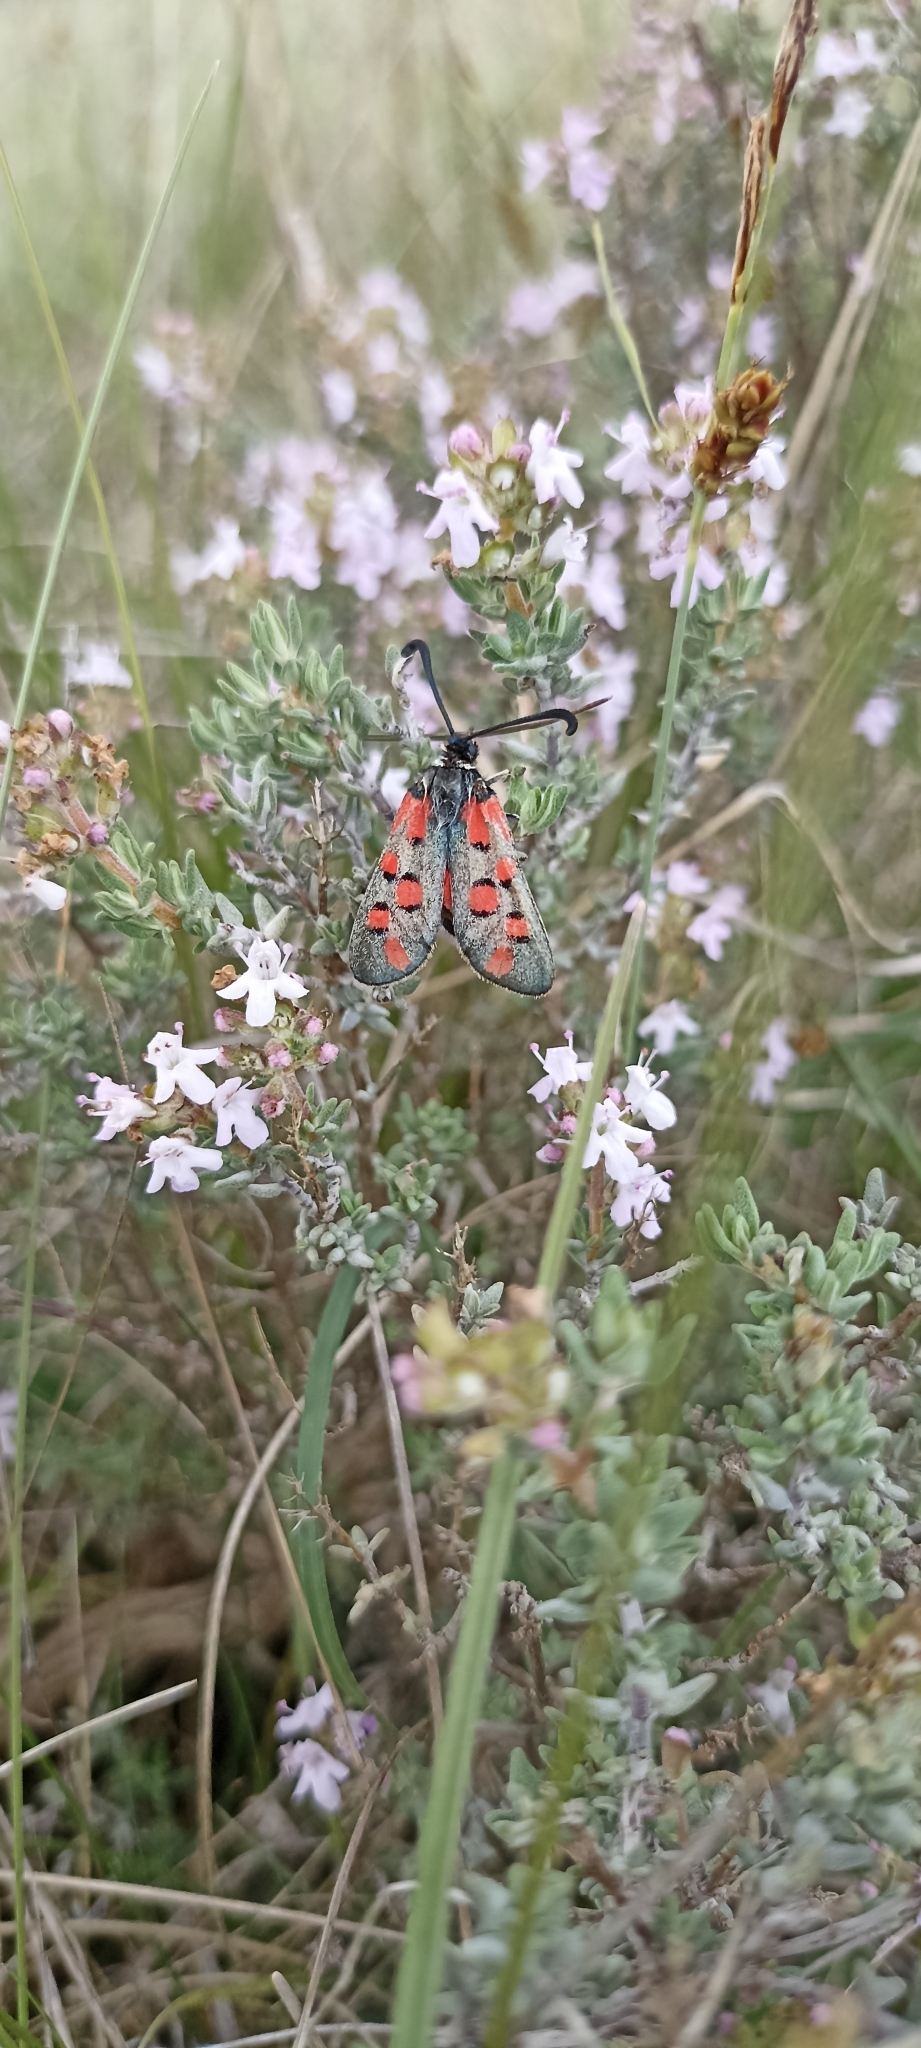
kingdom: Animalia
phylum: Arthropoda
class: Insecta
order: Lepidoptera
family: Zygaenidae
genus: Zygaena
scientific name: Zygaena rhadamanthus
